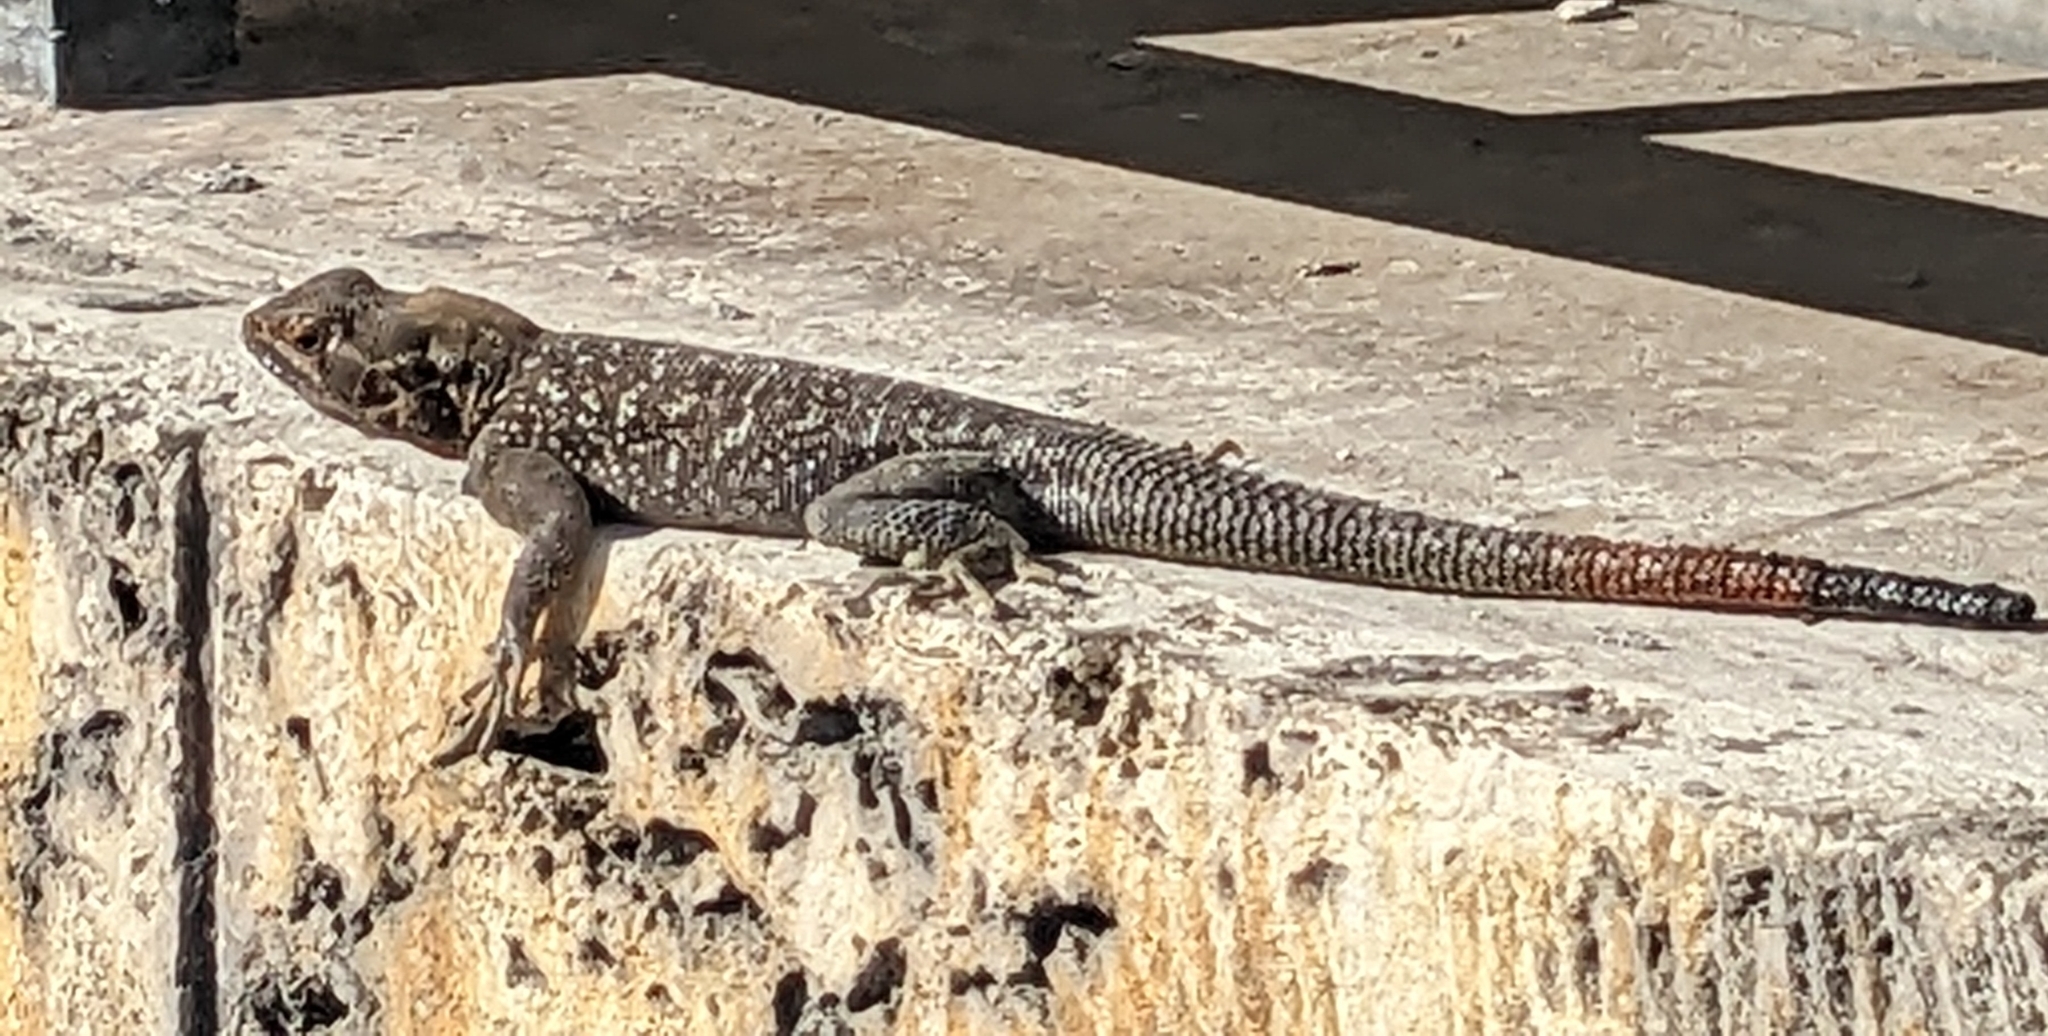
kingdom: Animalia
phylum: Chordata
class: Squamata
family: Agamidae
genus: Agama
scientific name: Agama picticauda
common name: Red-headed agama
